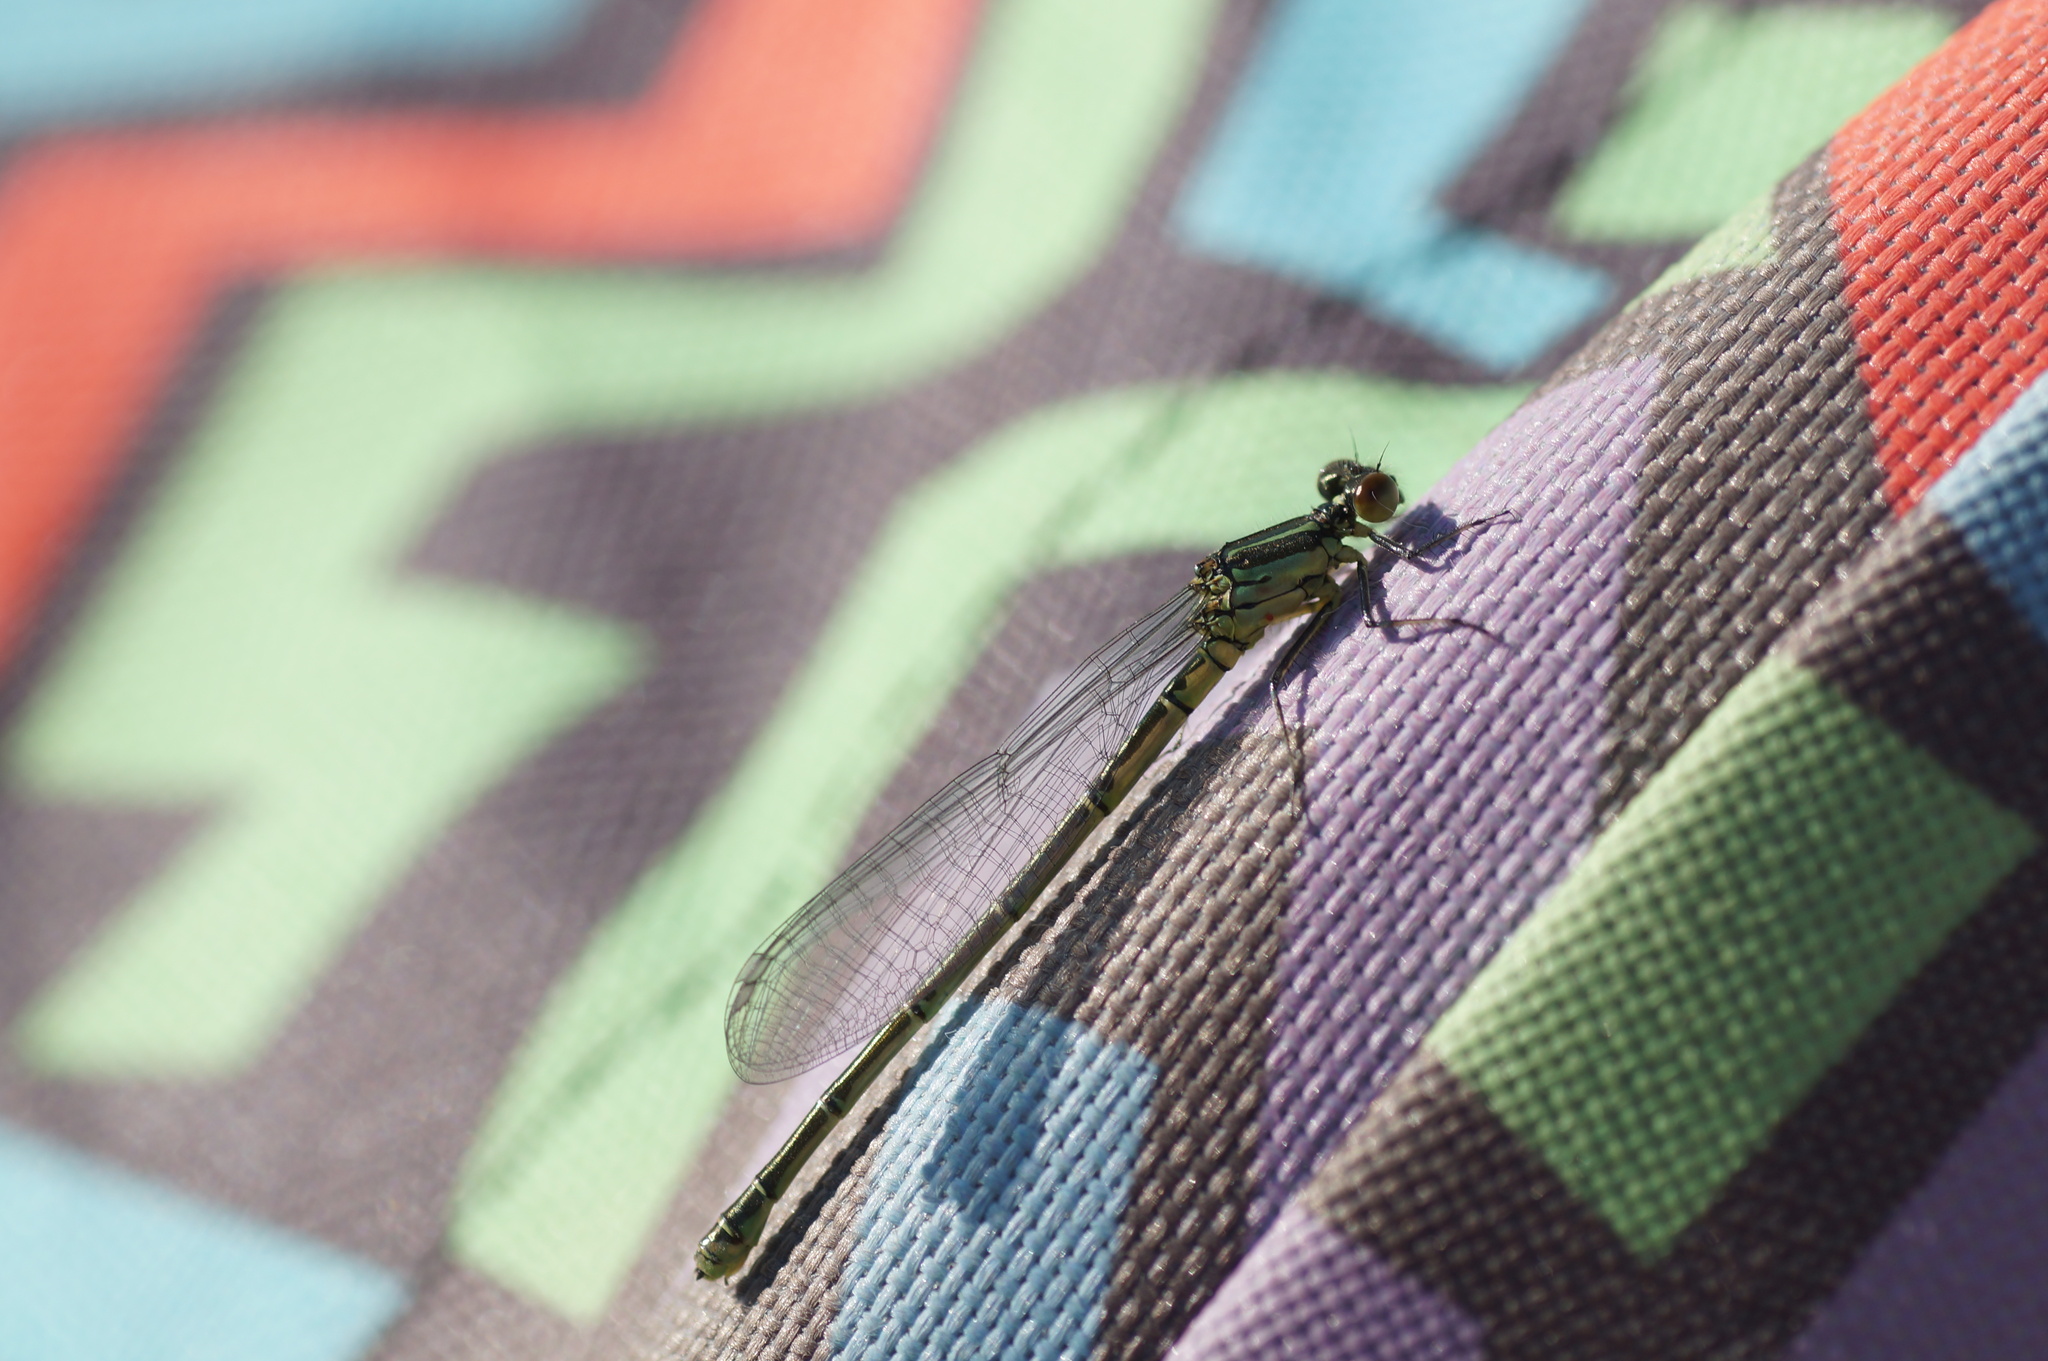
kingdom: Animalia
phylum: Arthropoda
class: Insecta
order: Odonata
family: Coenagrionidae
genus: Erythromma
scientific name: Erythromma viridulum
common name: Small red-eyed damselfly
